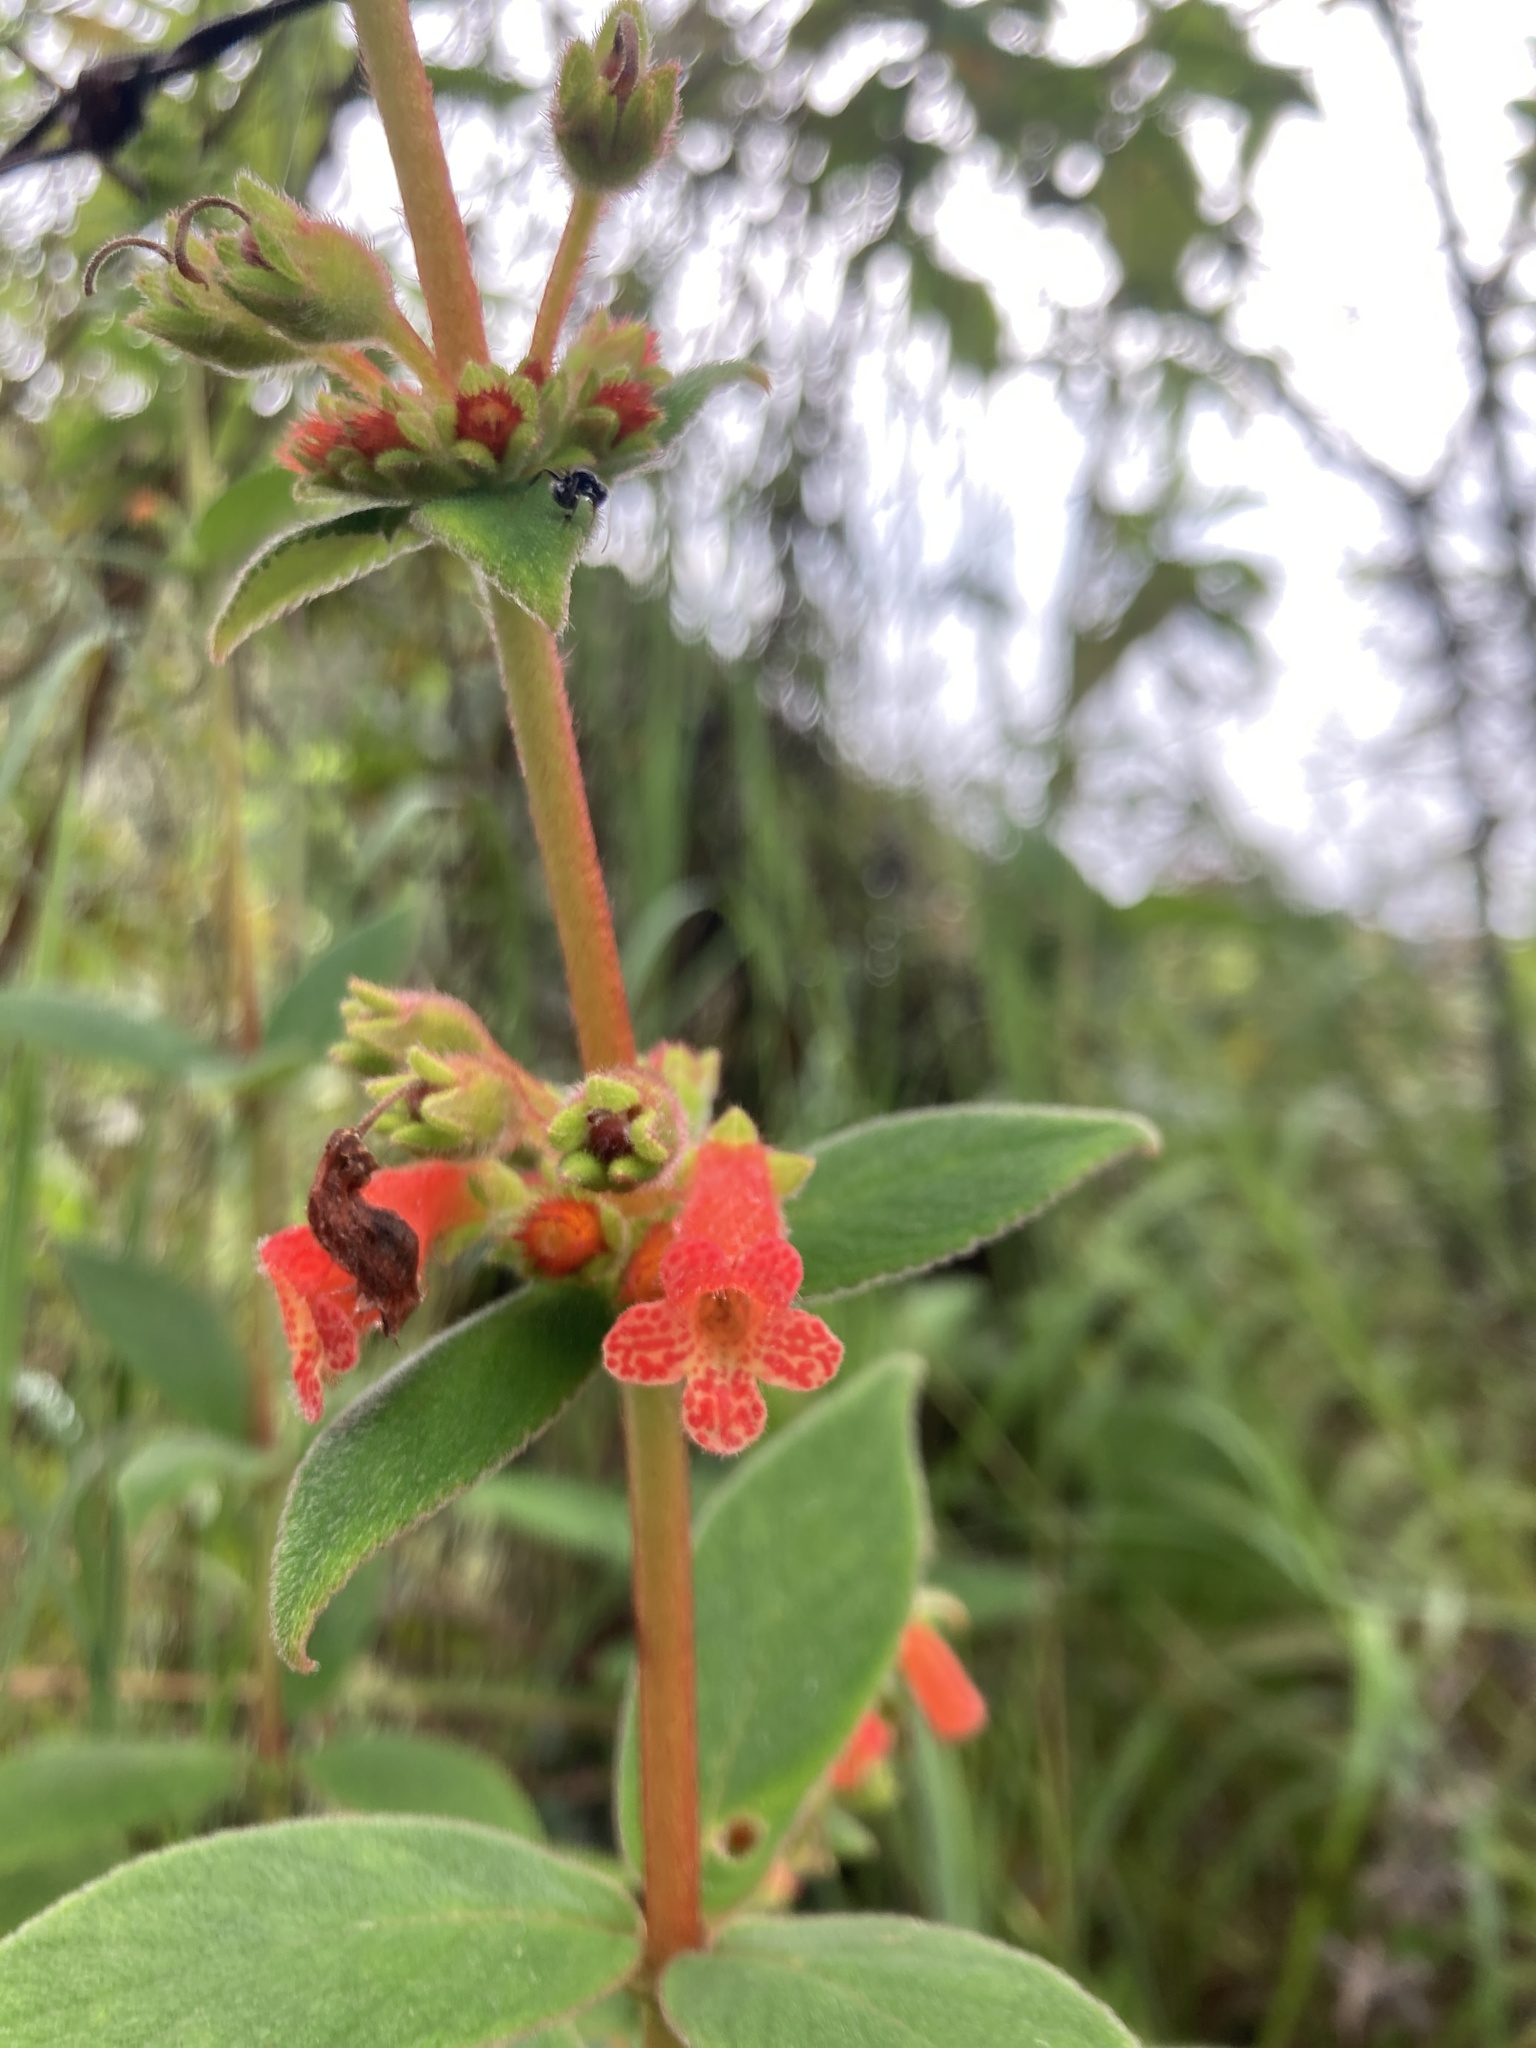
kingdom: Plantae
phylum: Tracheophyta
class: Magnoliopsida
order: Lamiales
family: Gesneriaceae
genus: Kohleria
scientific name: Kohleria spicata
